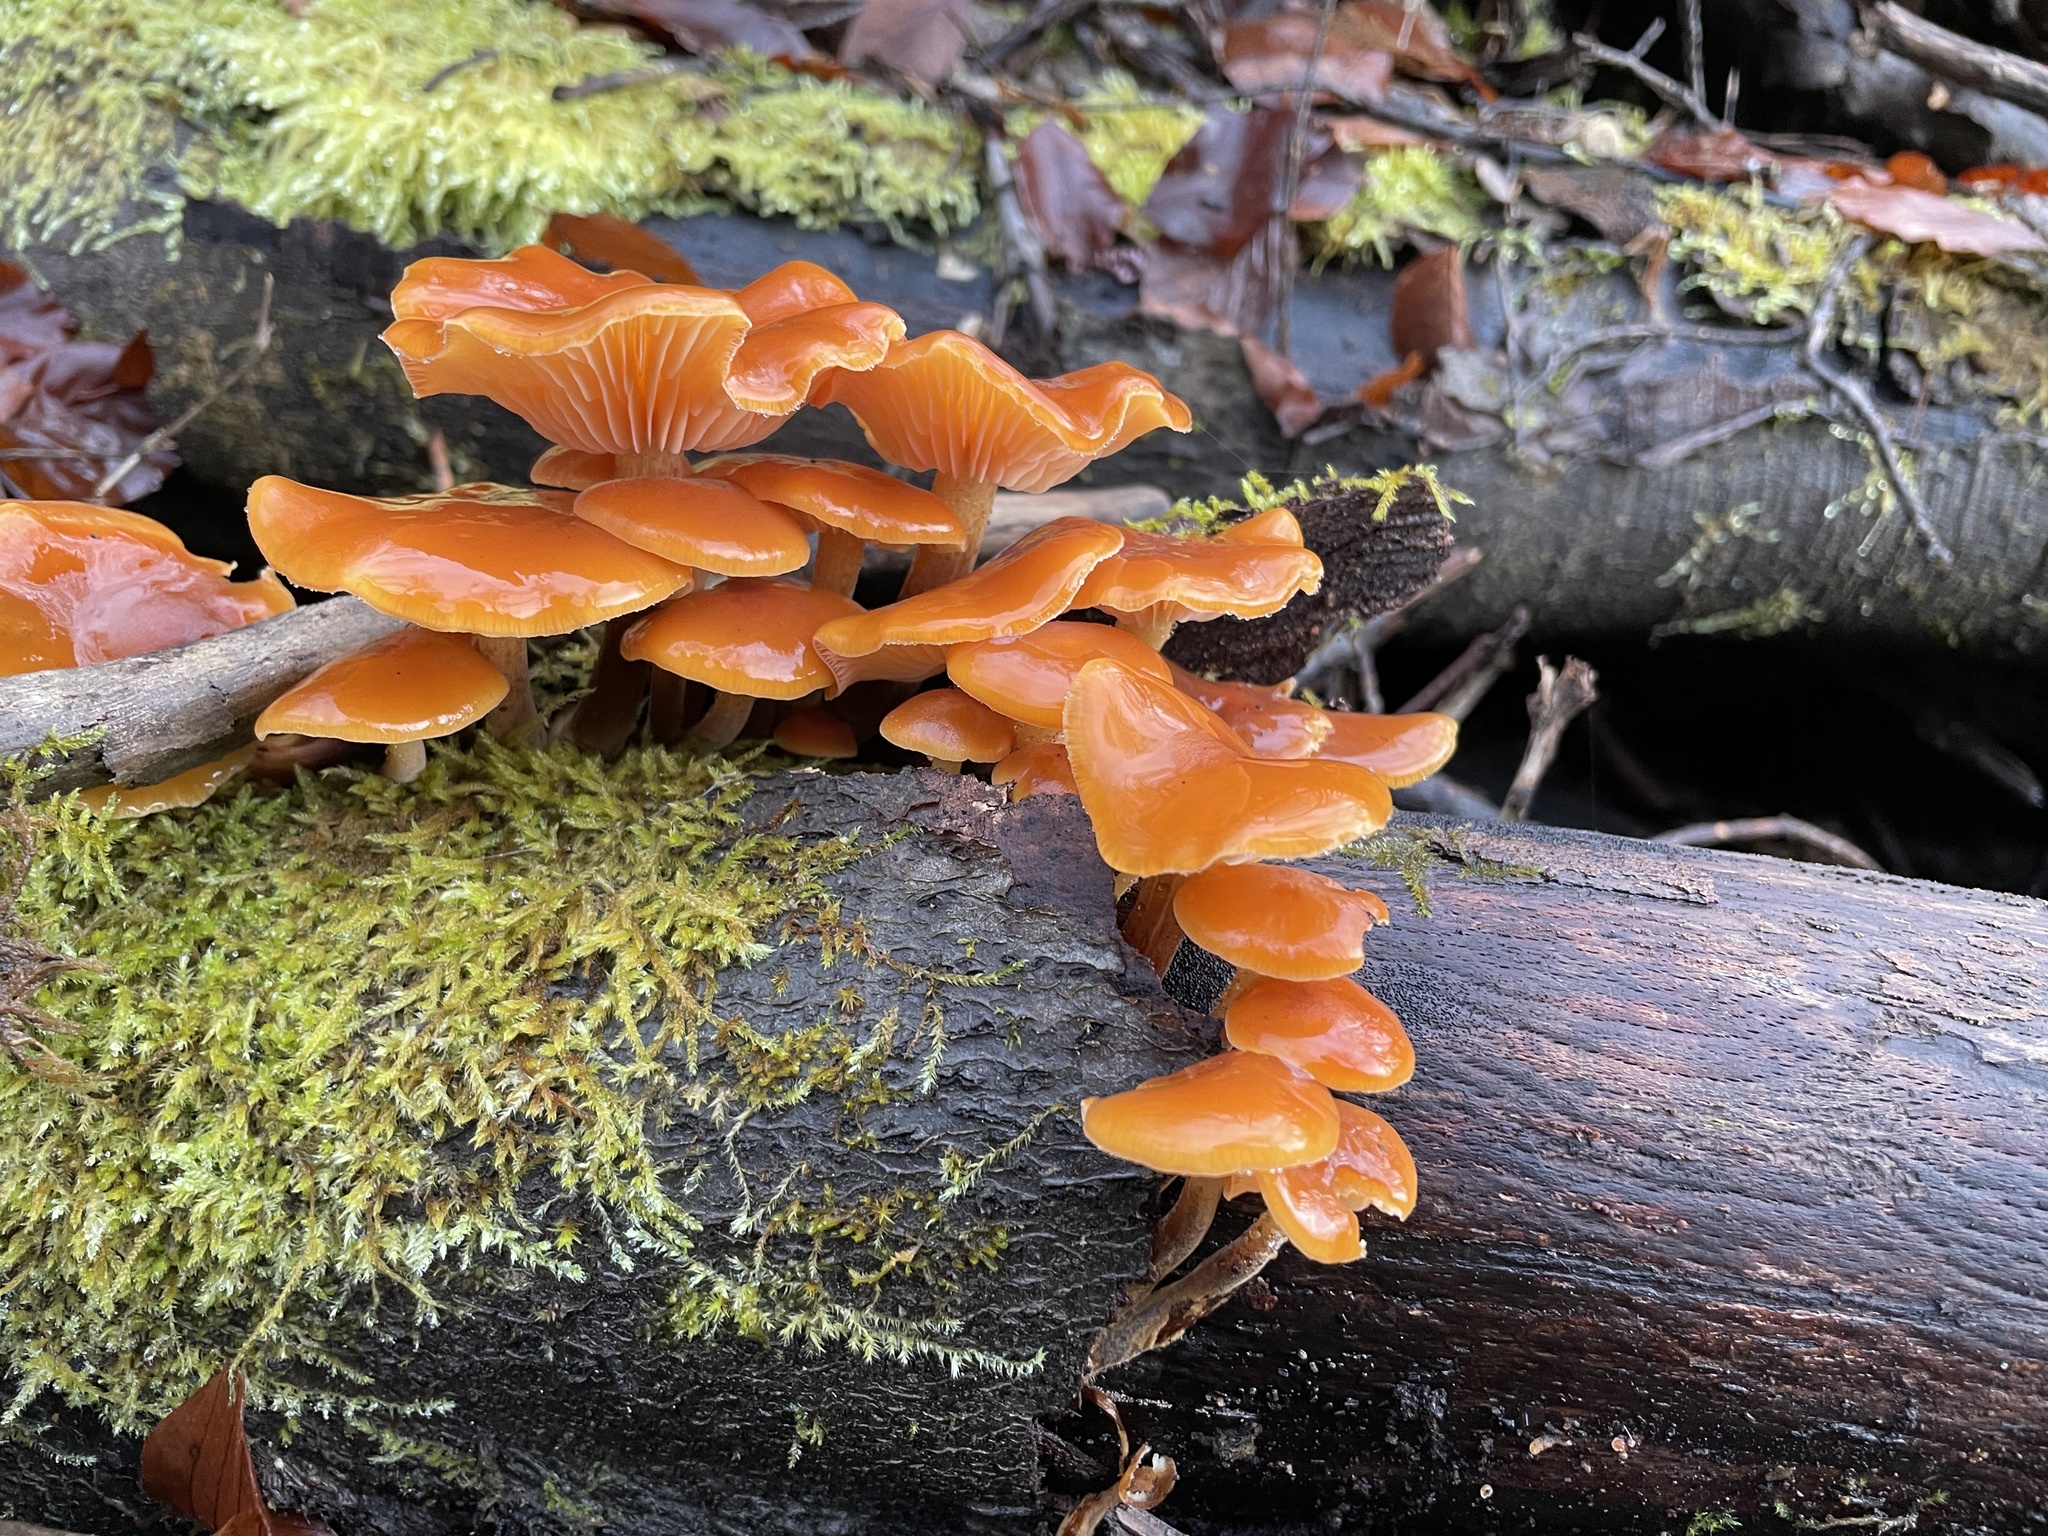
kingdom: Fungi
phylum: Basidiomycota
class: Agaricomycetes
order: Agaricales
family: Physalacriaceae
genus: Flammulina
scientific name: Flammulina
